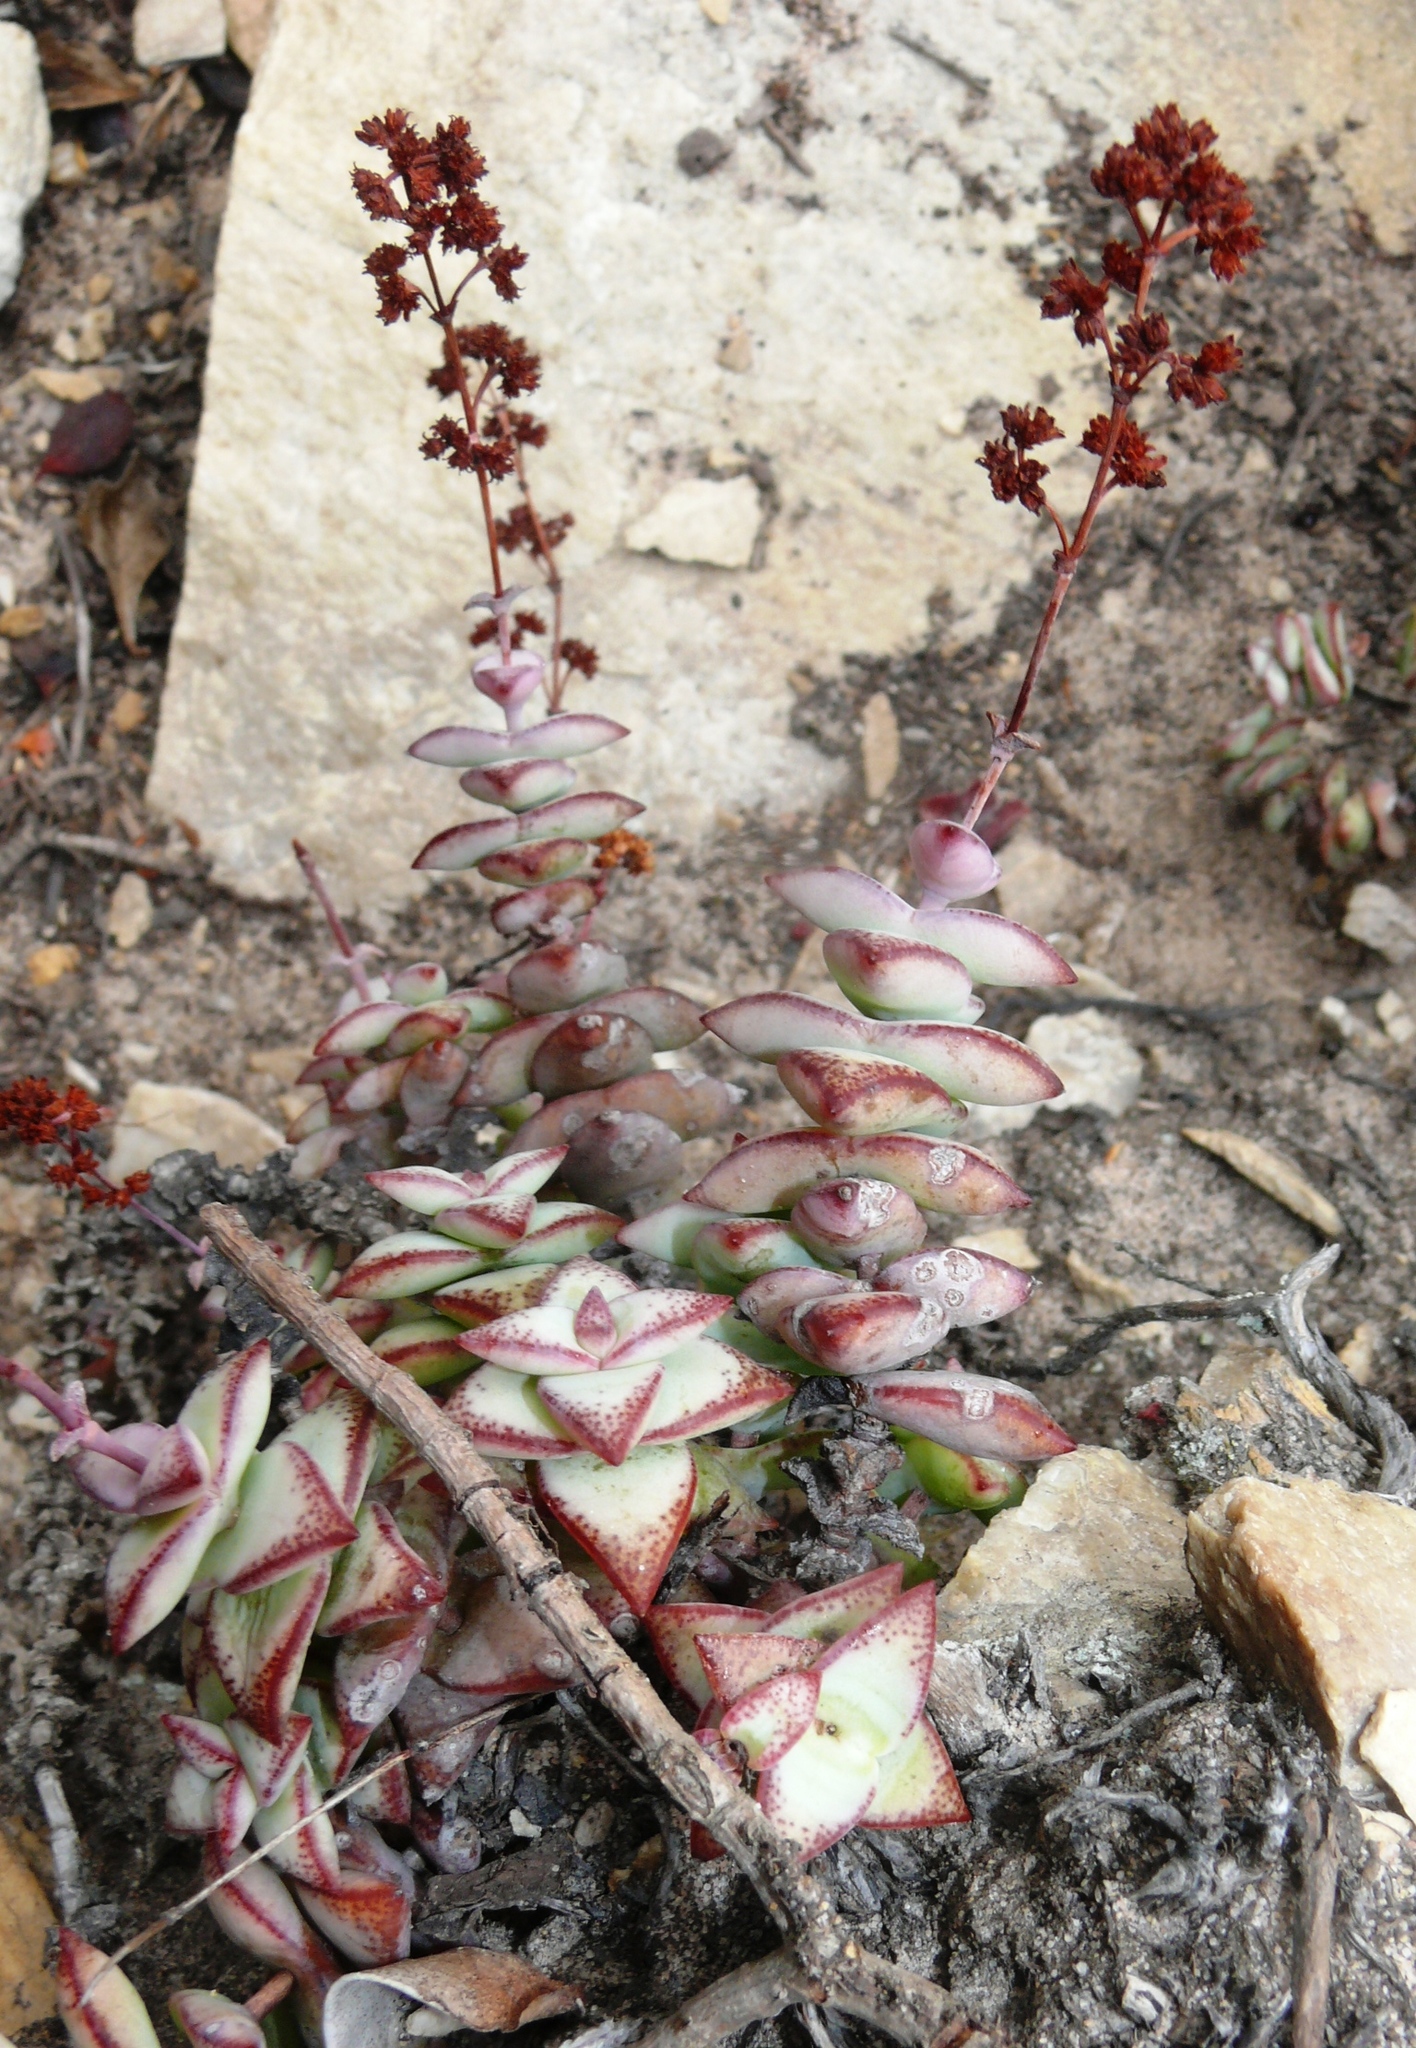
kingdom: Plantae
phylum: Tracheophyta
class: Magnoliopsida
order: Saxifragales
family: Crassulaceae
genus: Crassula
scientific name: Crassula perforata
